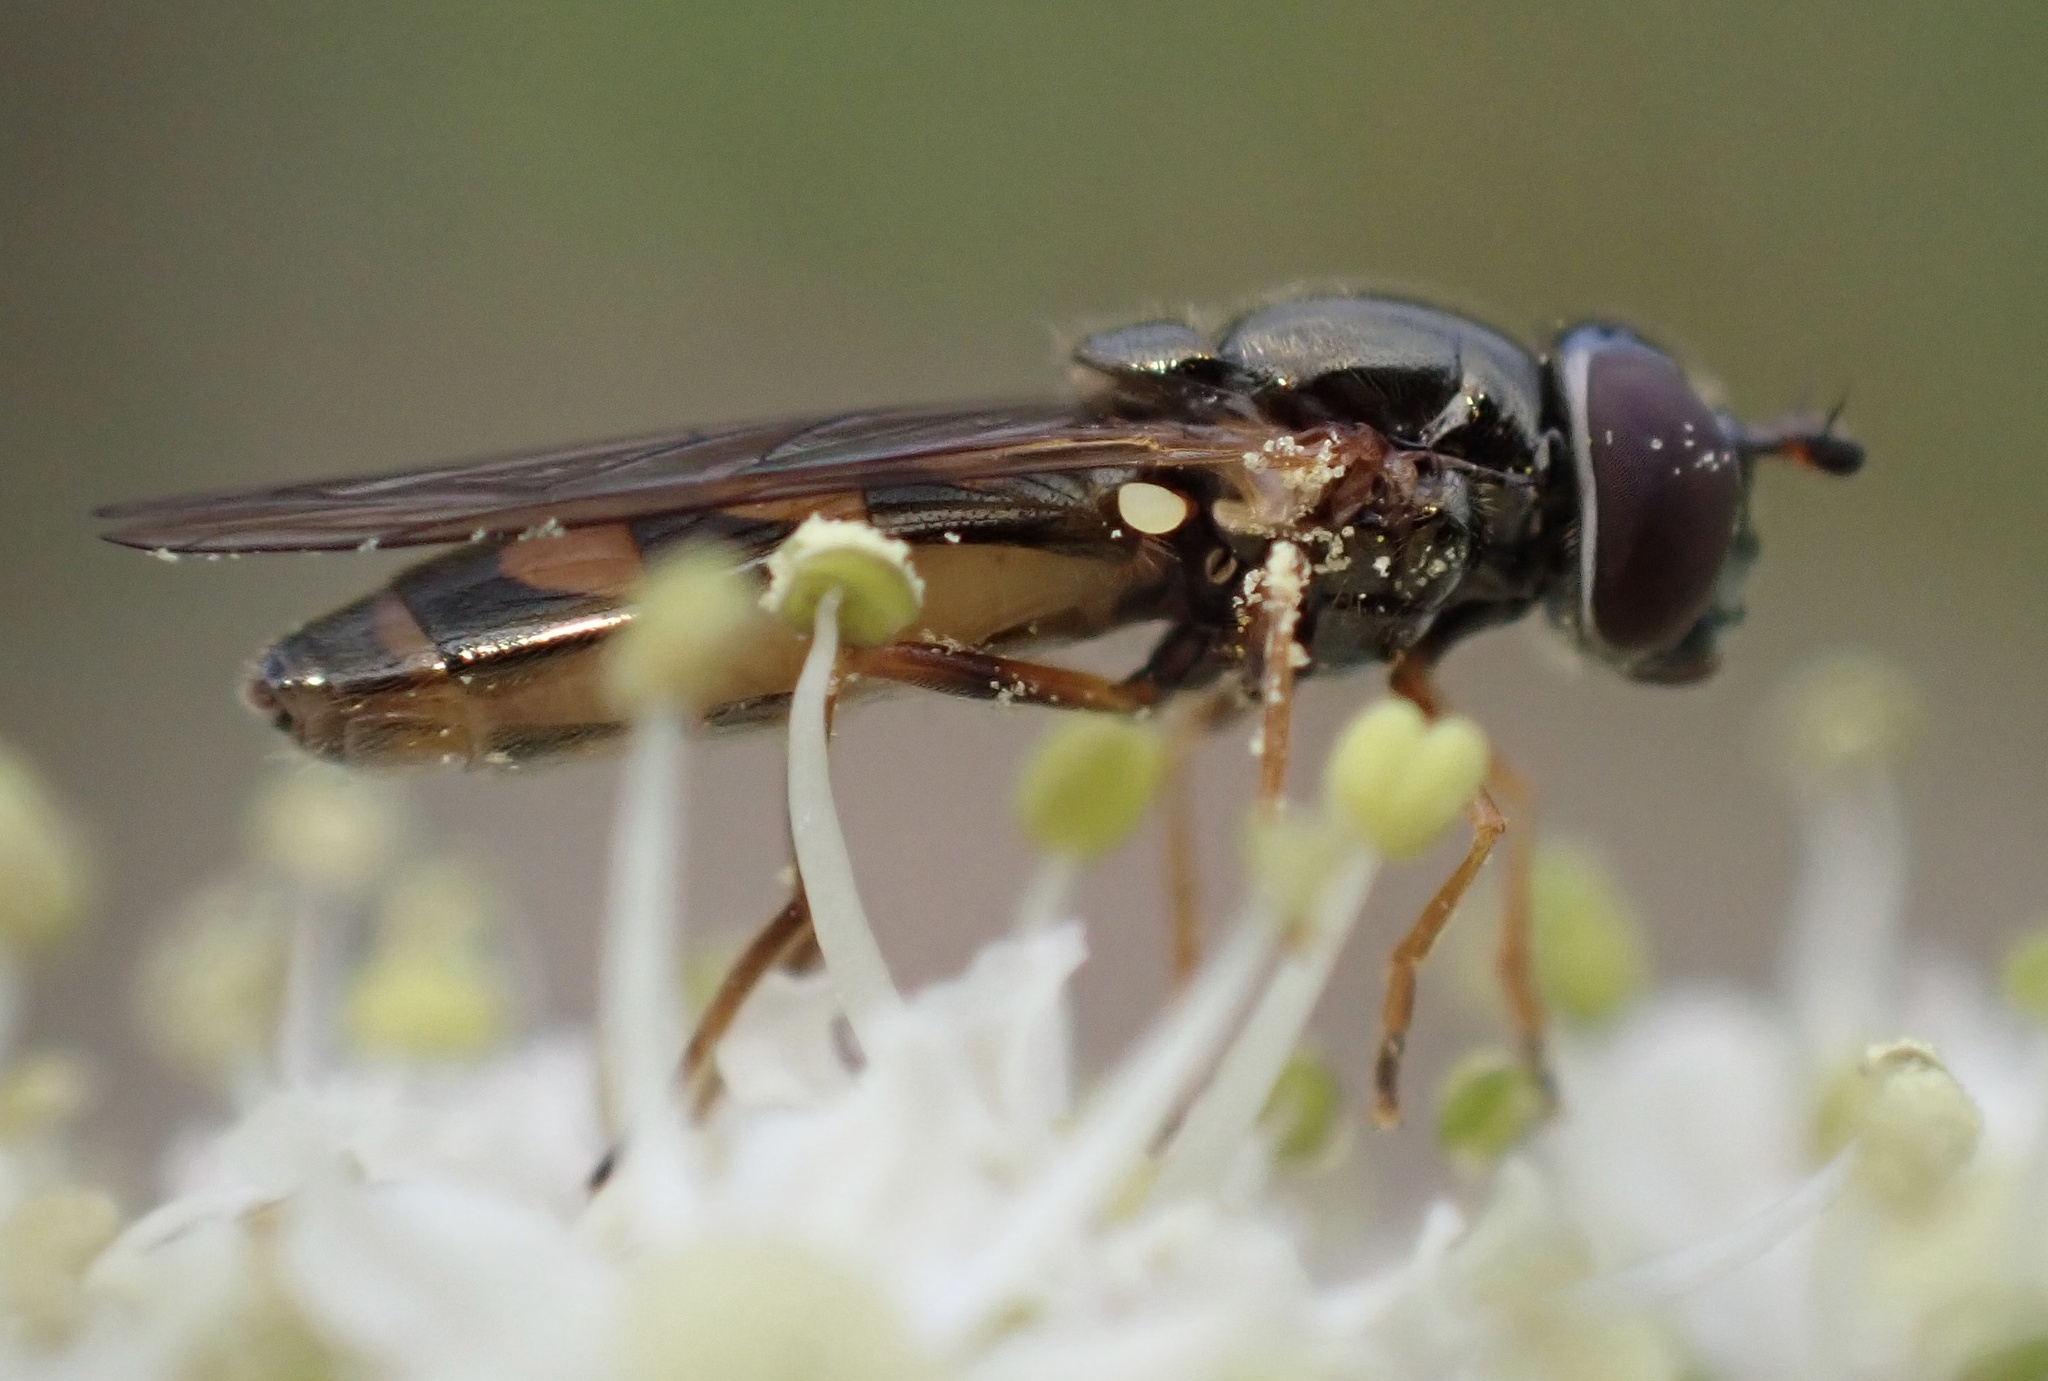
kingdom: Animalia
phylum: Arthropoda
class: Insecta
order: Diptera
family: Syrphidae
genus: Melanostoma
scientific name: Melanostoma mellina
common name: Hover fly
